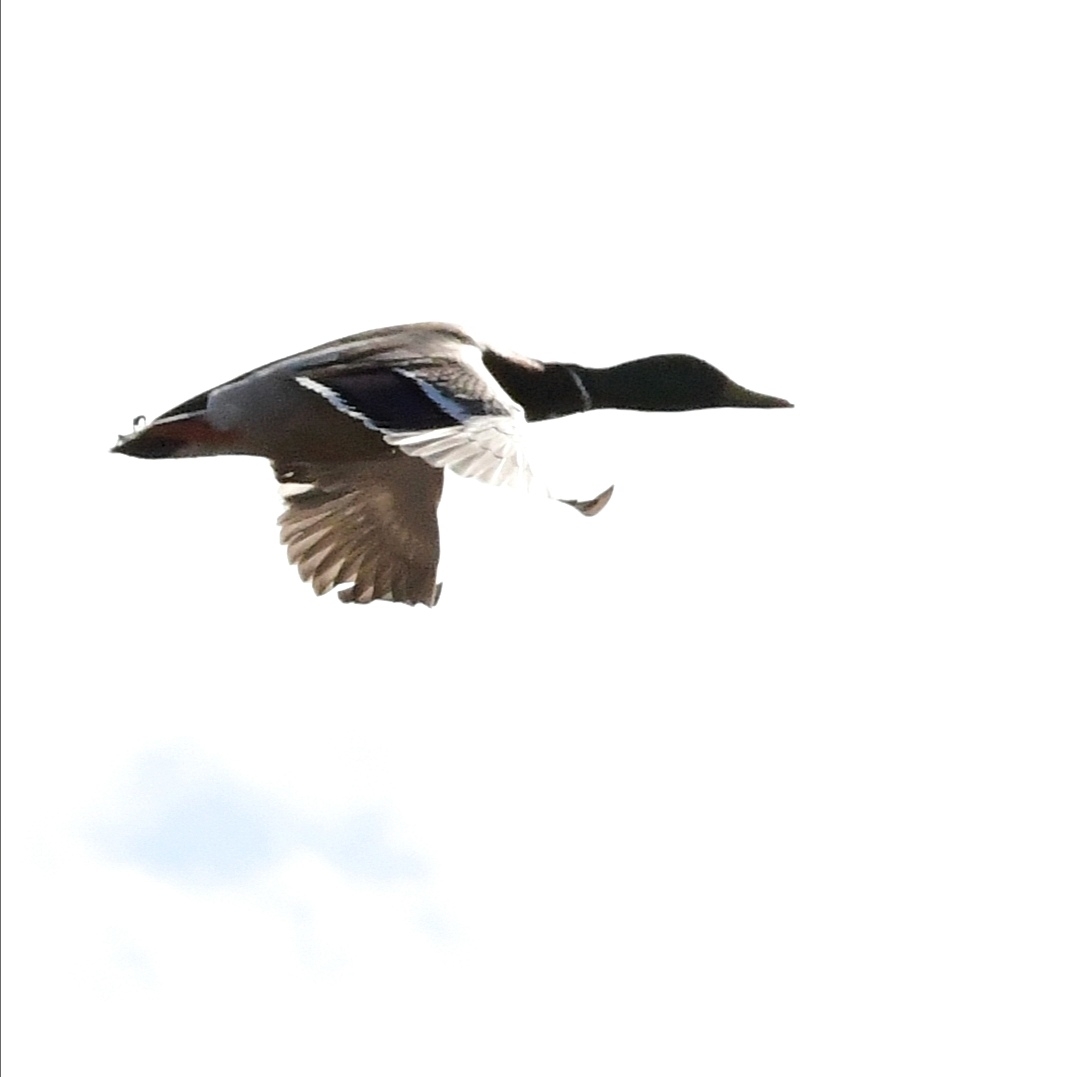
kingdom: Animalia
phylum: Chordata
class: Aves
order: Anseriformes
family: Anatidae
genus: Anas
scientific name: Anas platyrhynchos
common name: Mallard
